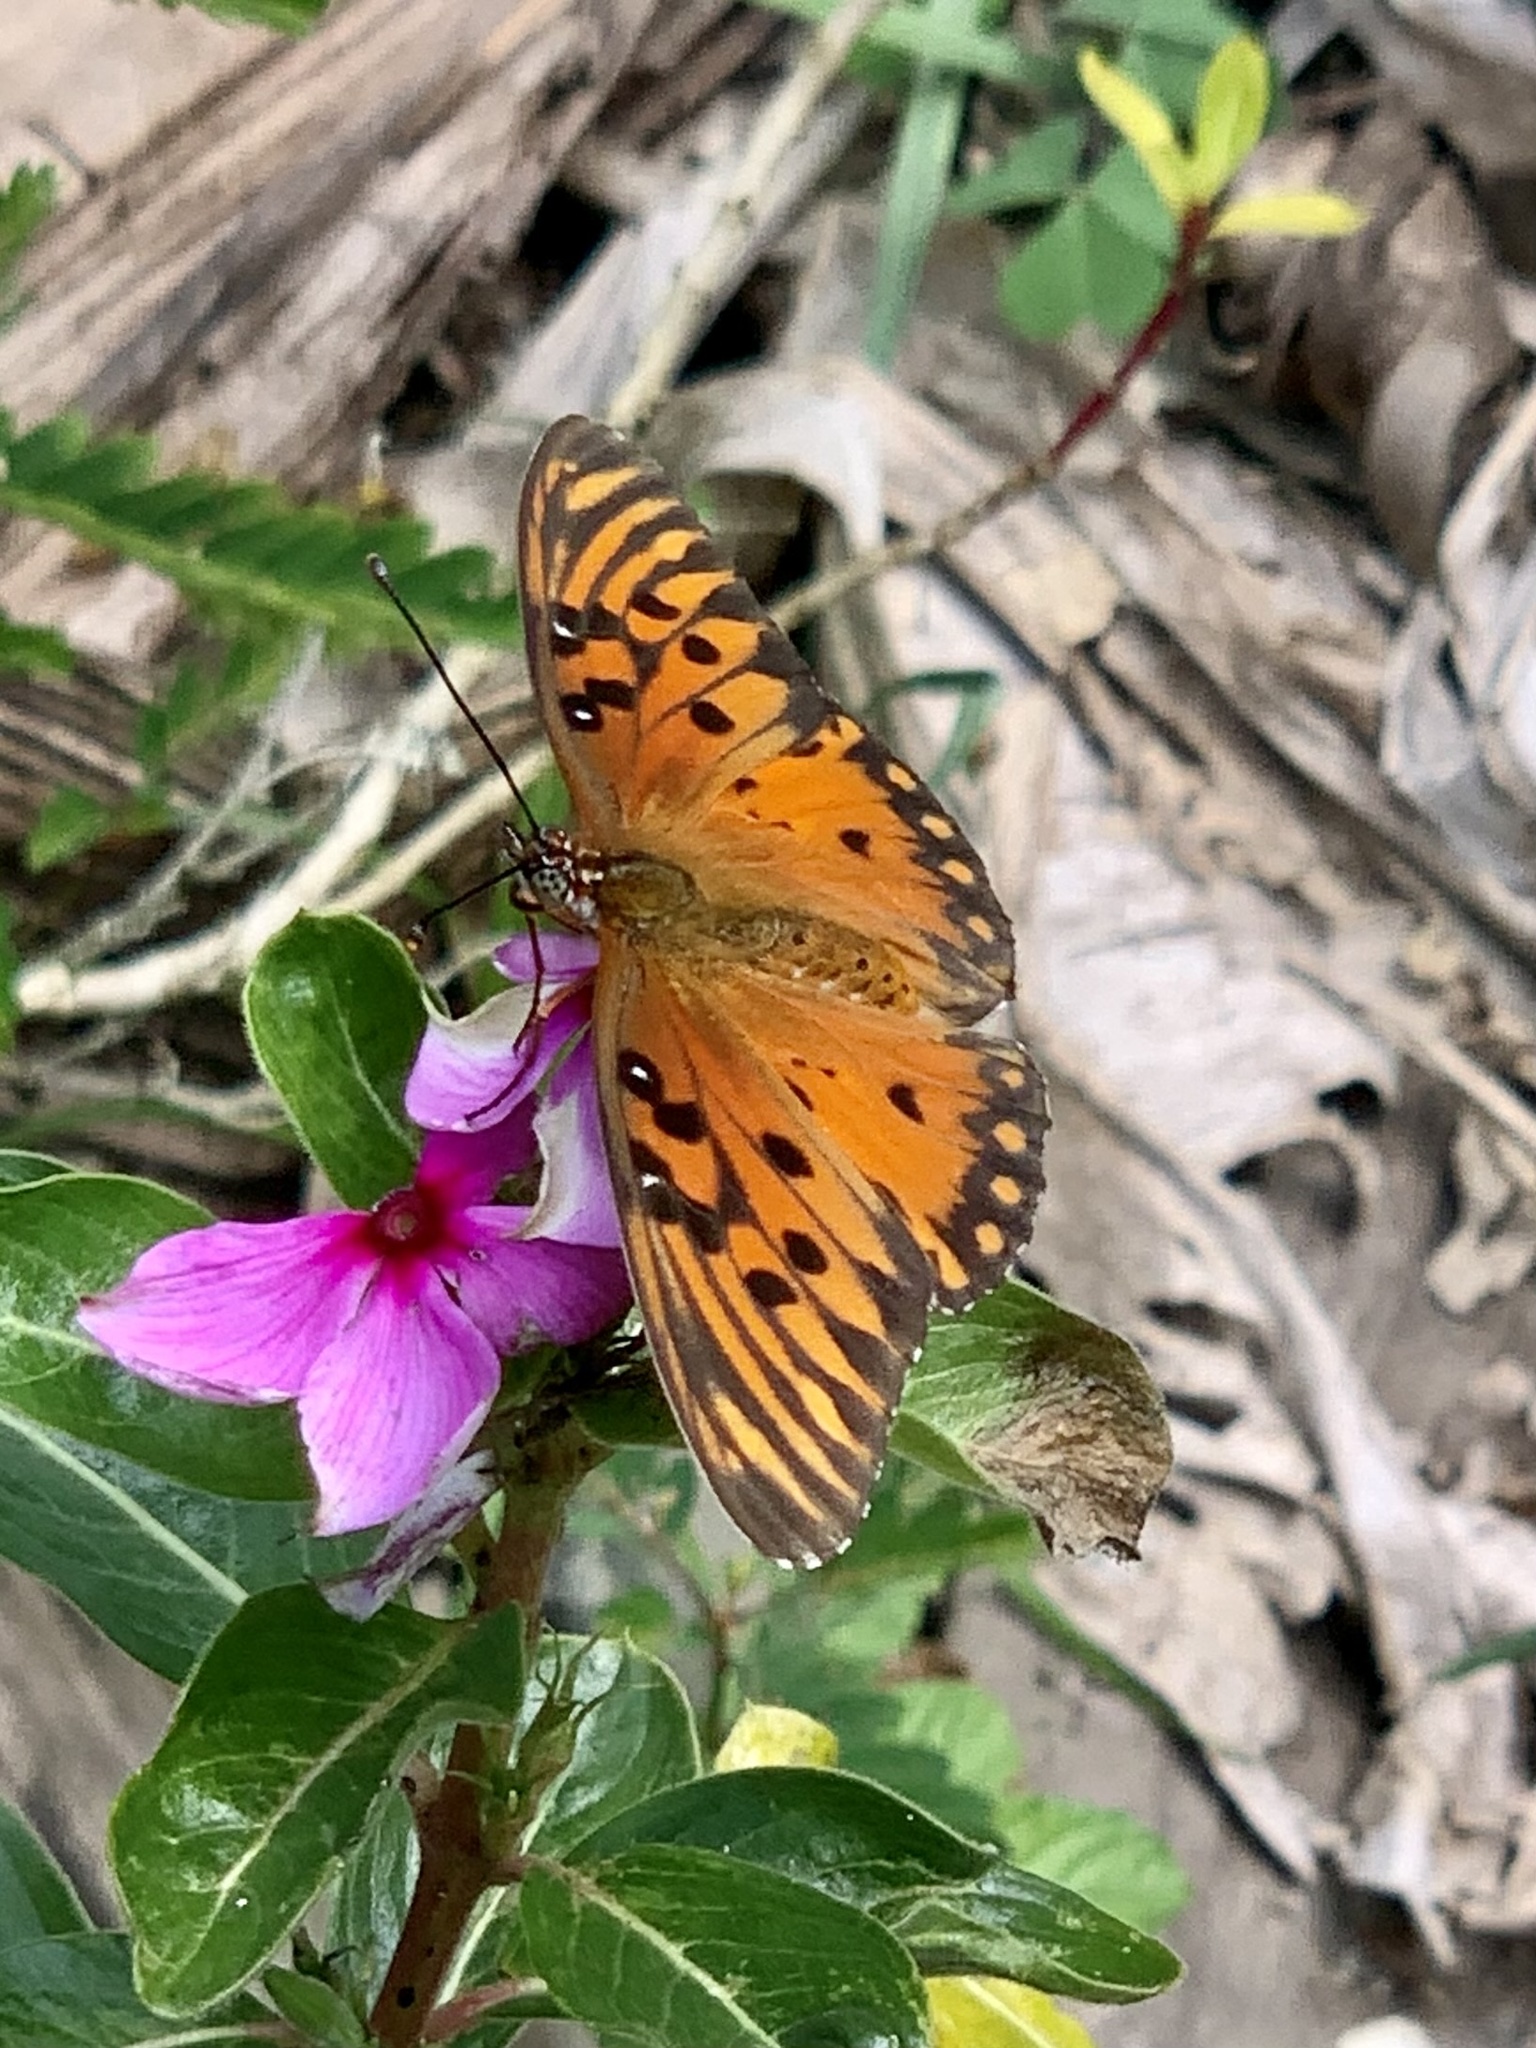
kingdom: Animalia
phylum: Arthropoda
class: Insecta
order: Lepidoptera
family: Nymphalidae
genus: Dione
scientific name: Dione vanillae
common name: Gulf fritillary
